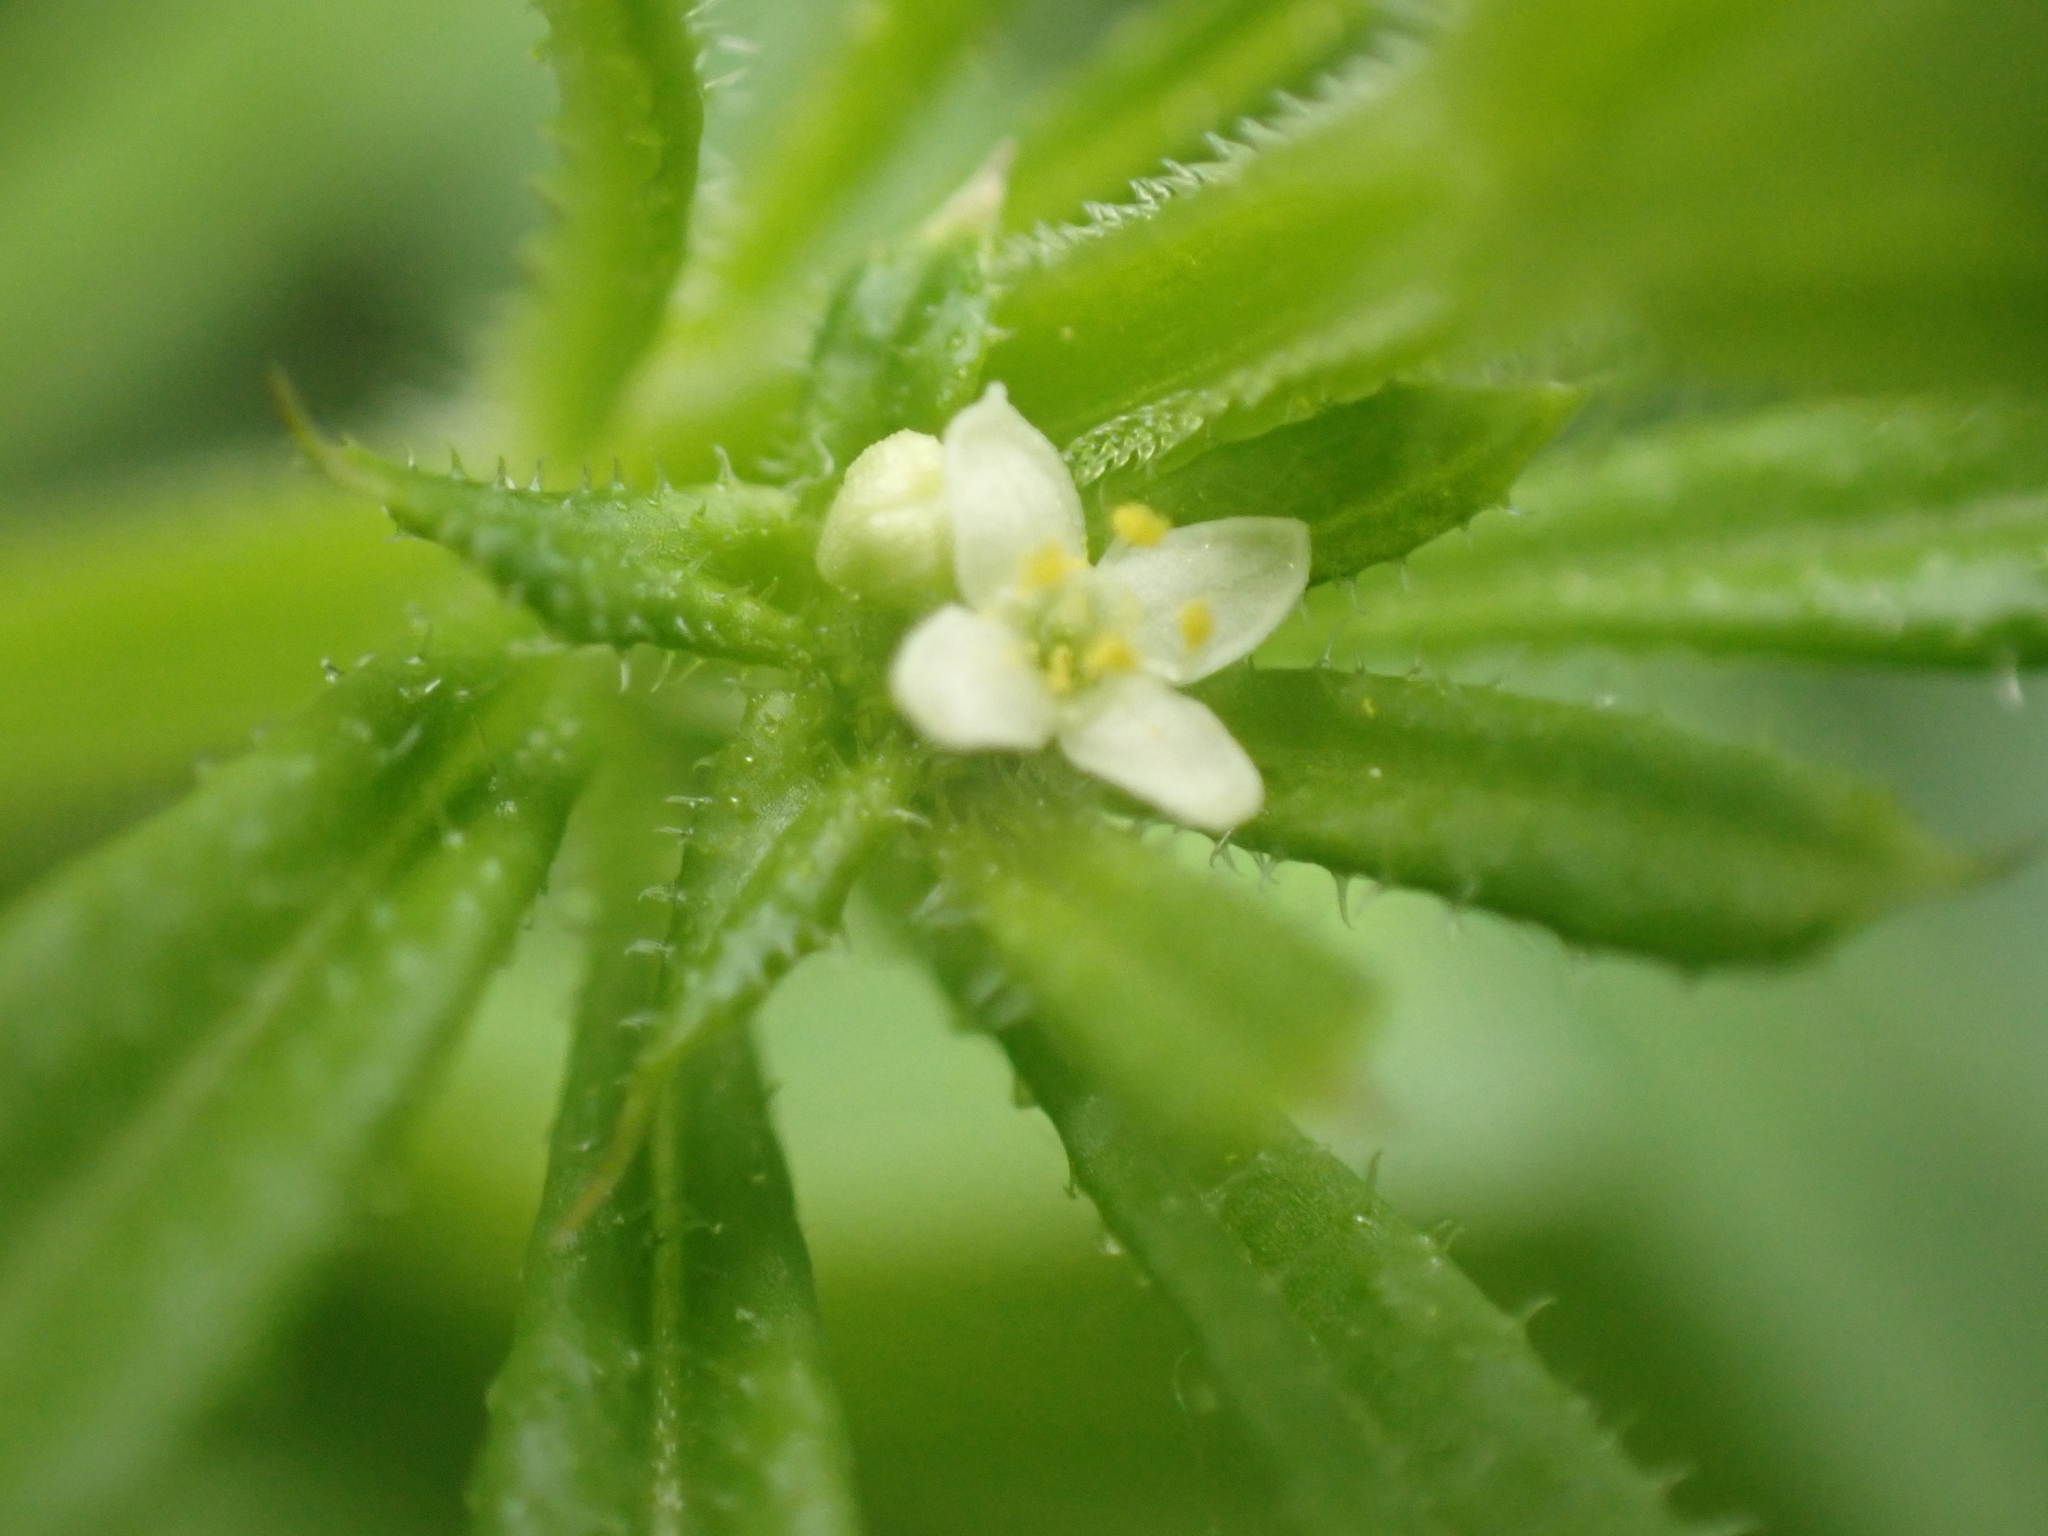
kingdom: Plantae
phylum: Tracheophyta
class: Magnoliopsida
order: Gentianales
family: Rubiaceae
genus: Galium
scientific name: Galium aparine
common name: Cleavers
